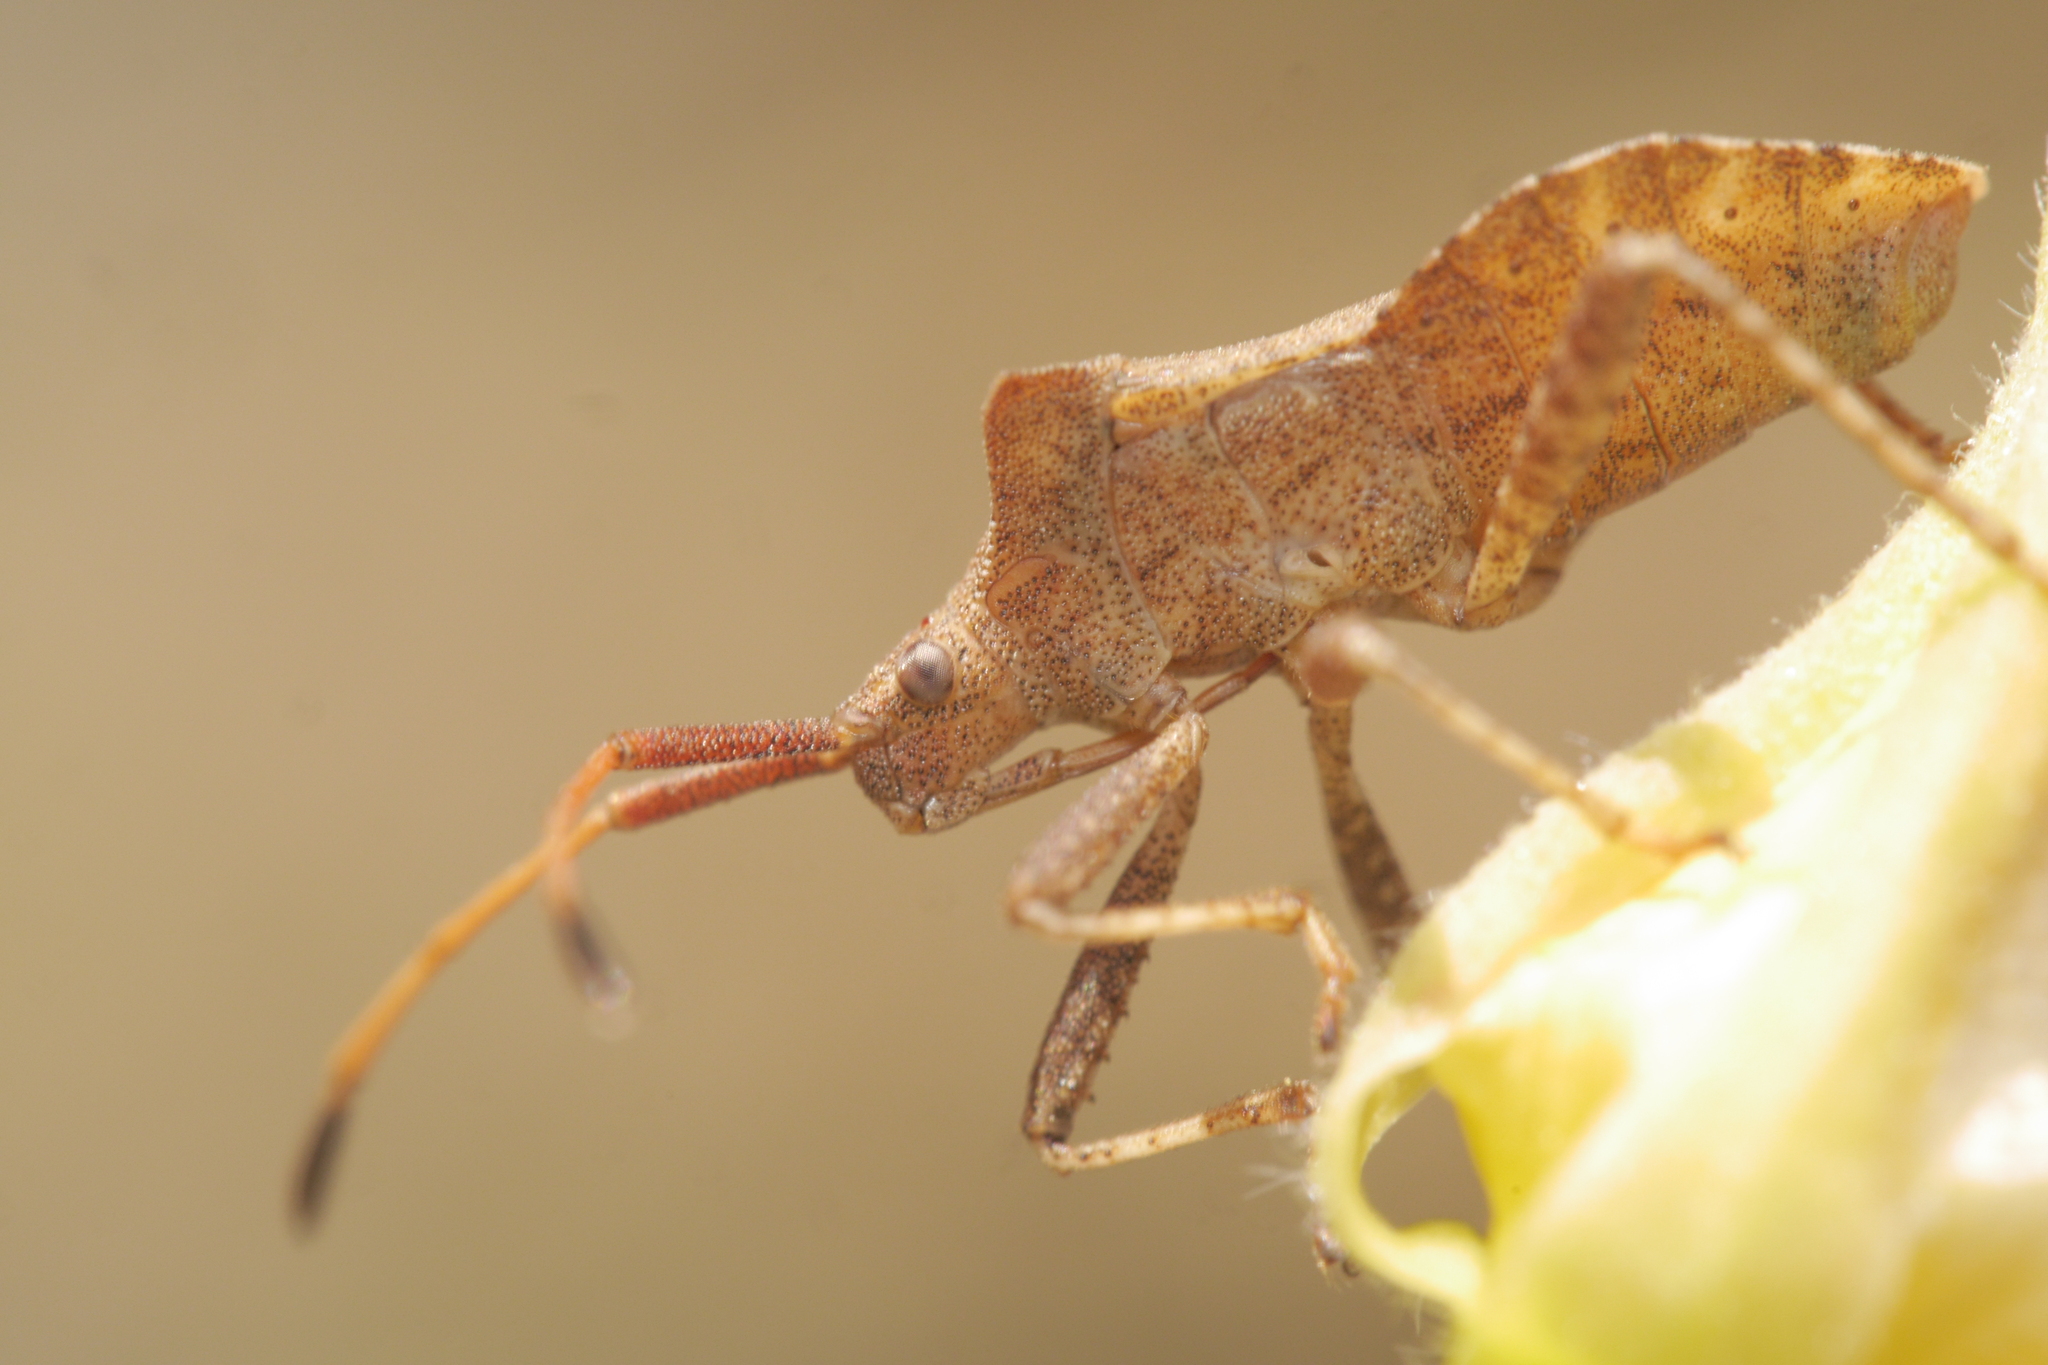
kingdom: Animalia
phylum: Arthropoda
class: Insecta
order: Hemiptera
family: Coreidae
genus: Coreus
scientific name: Coreus marginatus
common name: Dock bug
